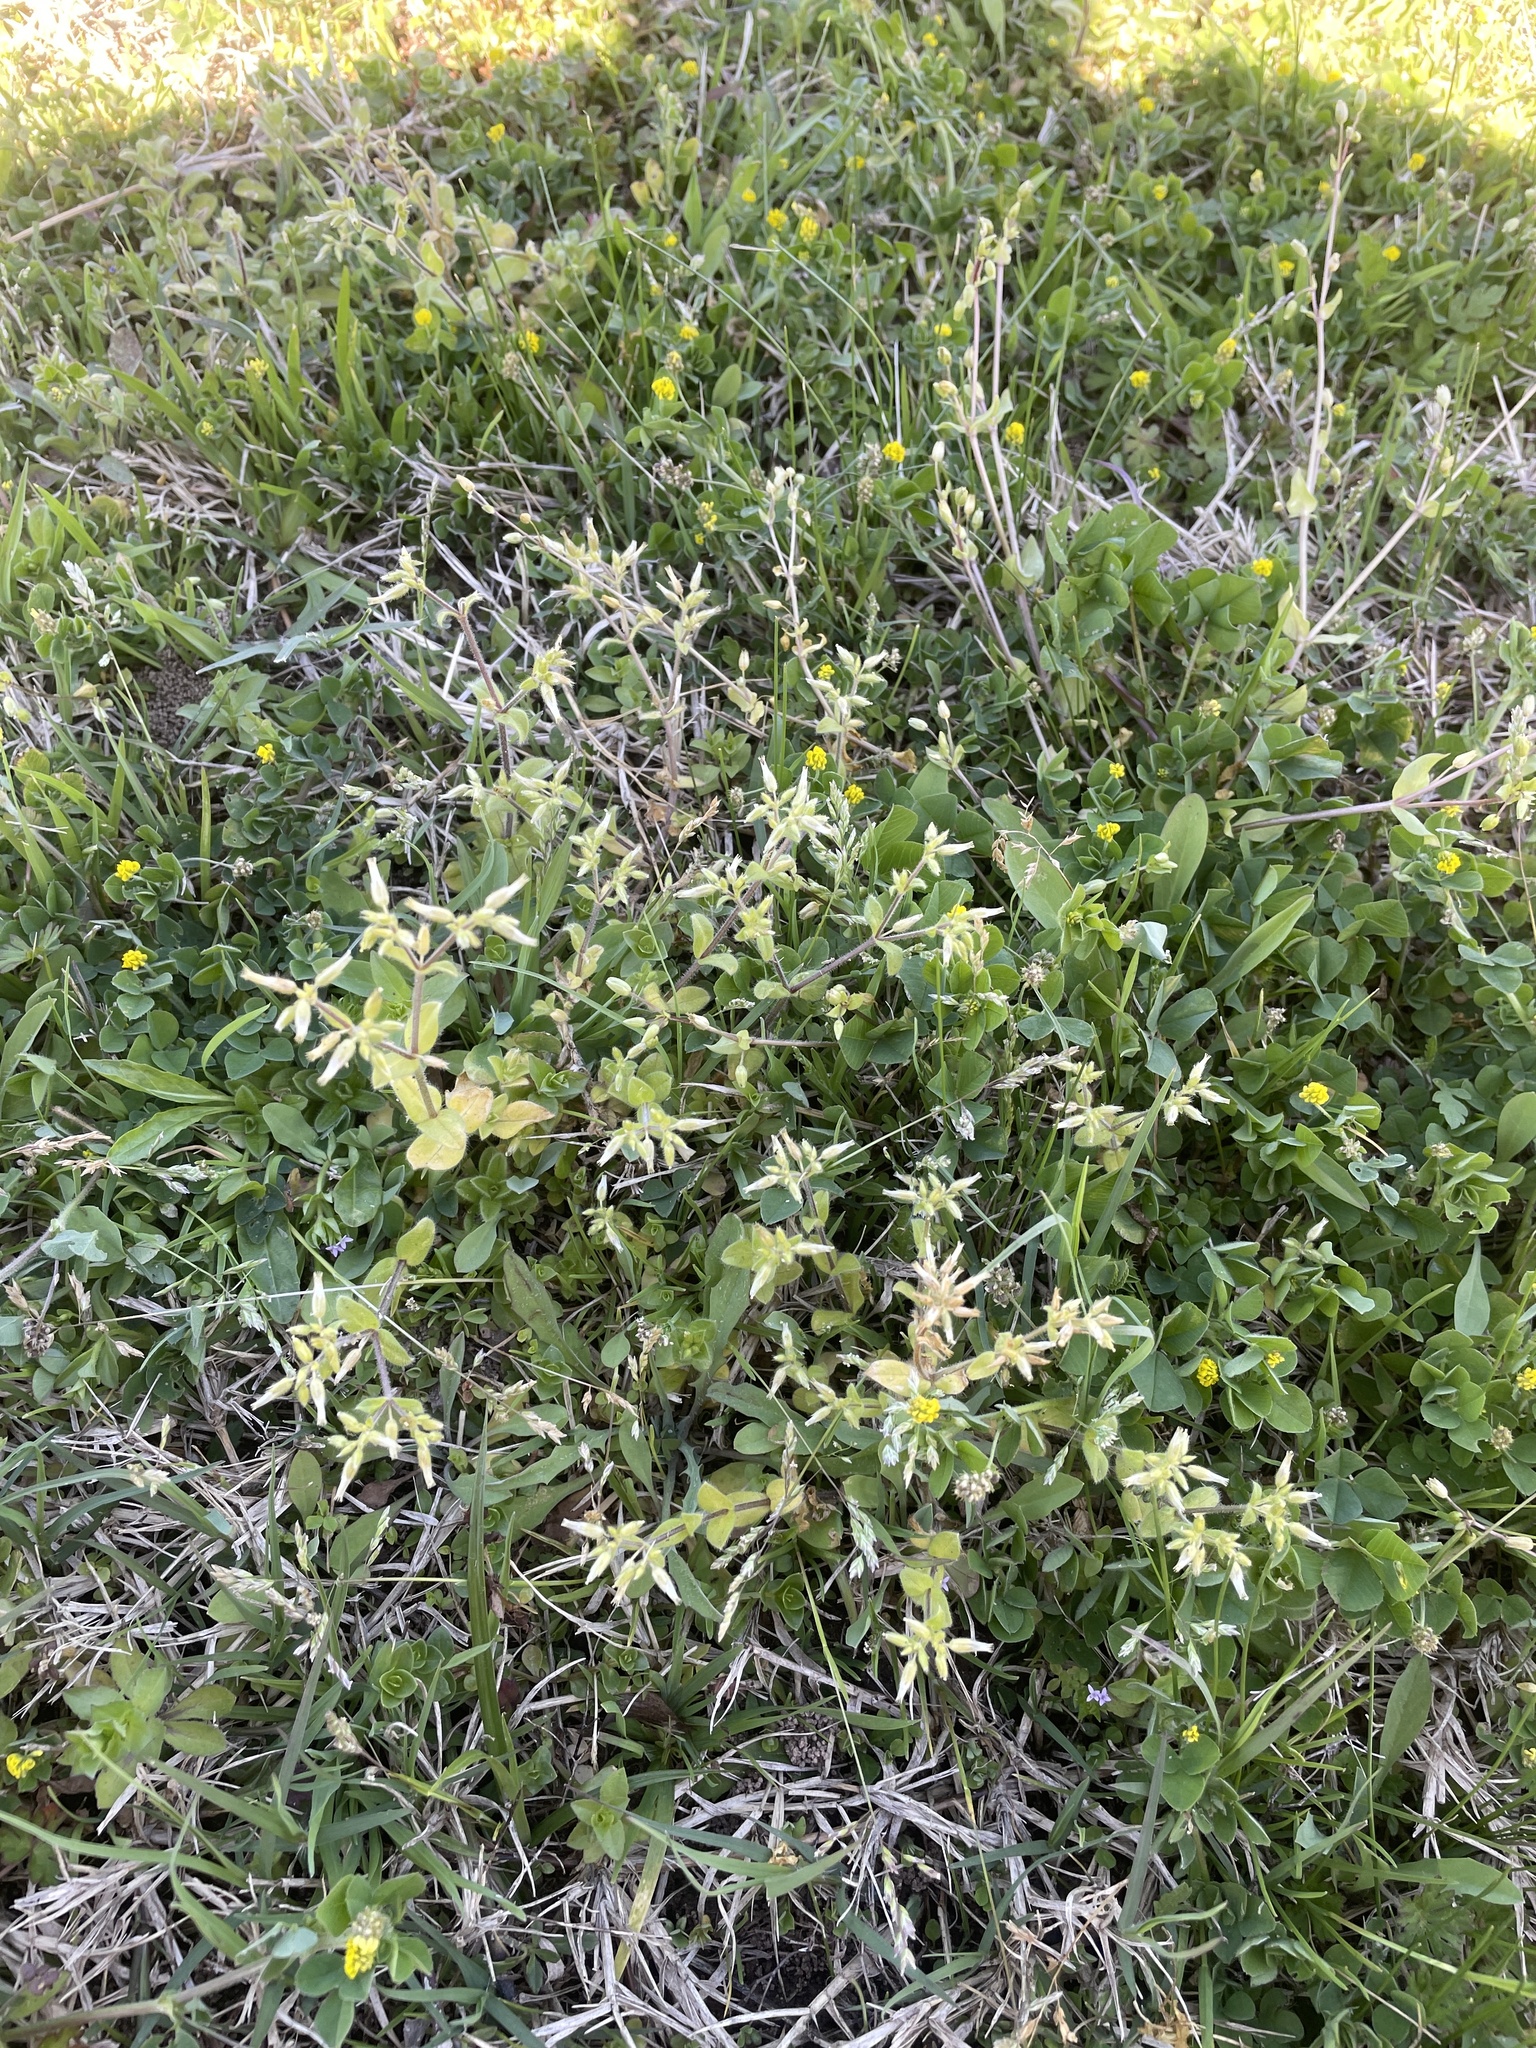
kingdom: Plantae
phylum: Tracheophyta
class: Magnoliopsida
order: Caryophyllales
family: Caryophyllaceae
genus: Cerastium
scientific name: Cerastium glomeratum
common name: Sticky chickweed
